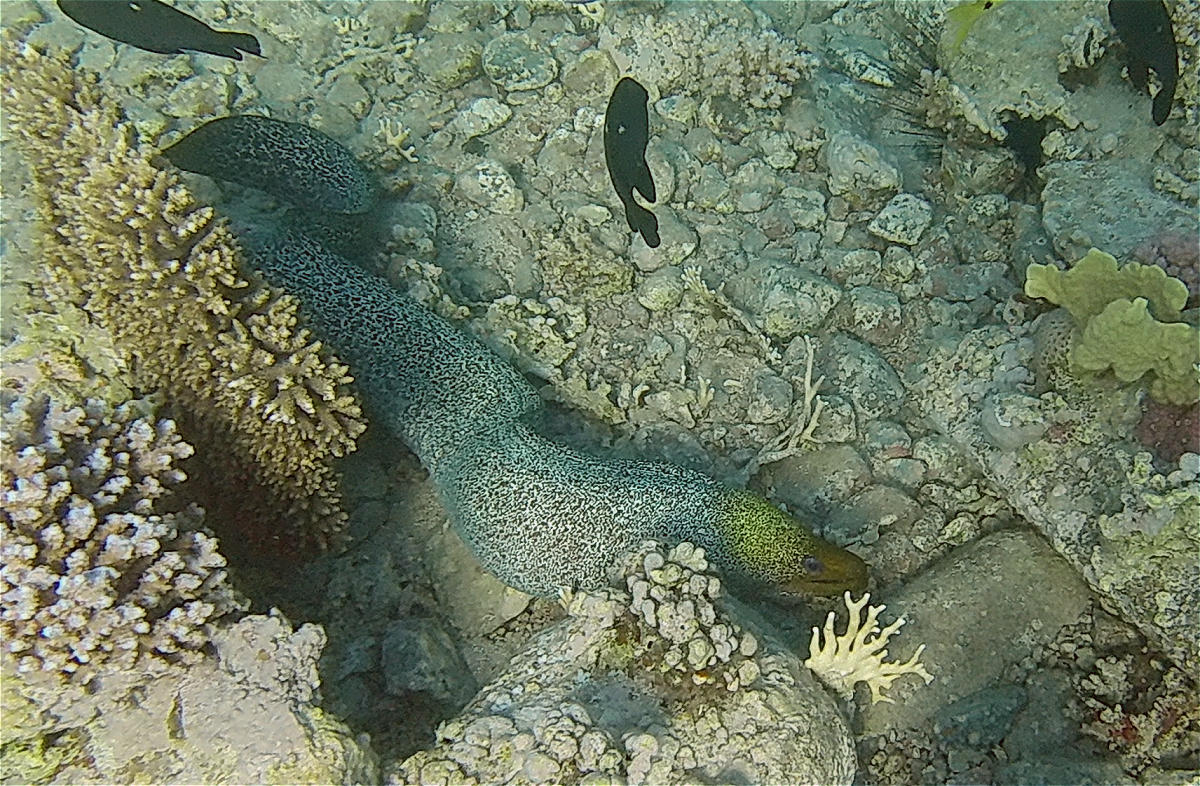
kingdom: Animalia
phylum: Chordata
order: Anguilliformes
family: Muraenidae
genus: Gymnothorax
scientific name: Gymnothorax undulatus
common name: Leopard moray
